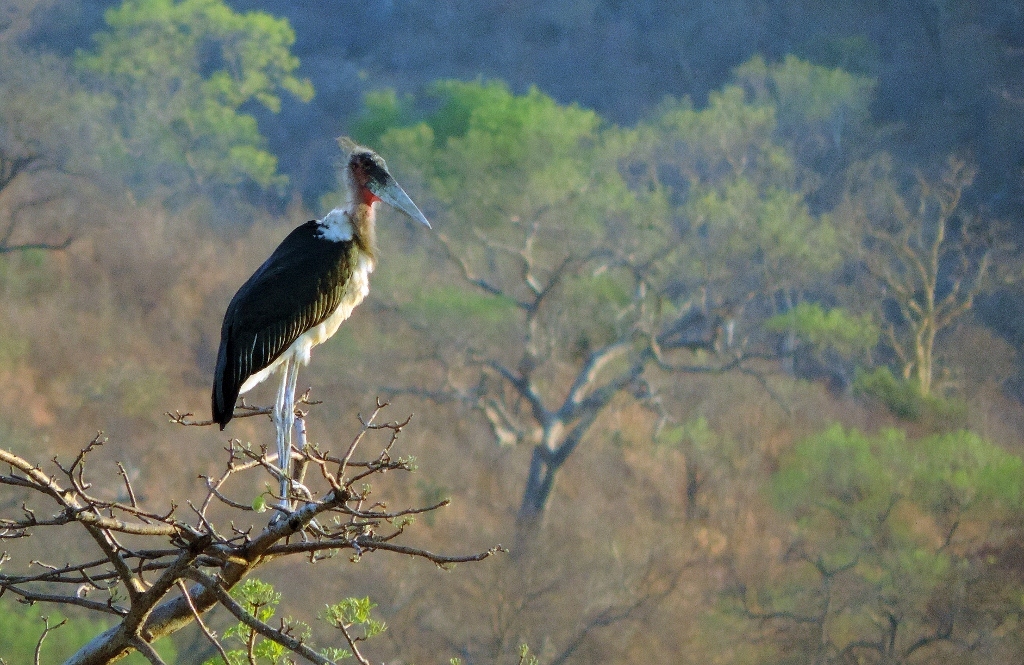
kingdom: Animalia
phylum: Chordata
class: Aves
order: Ciconiiformes
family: Ciconiidae
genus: Leptoptilos
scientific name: Leptoptilos crumenifer
